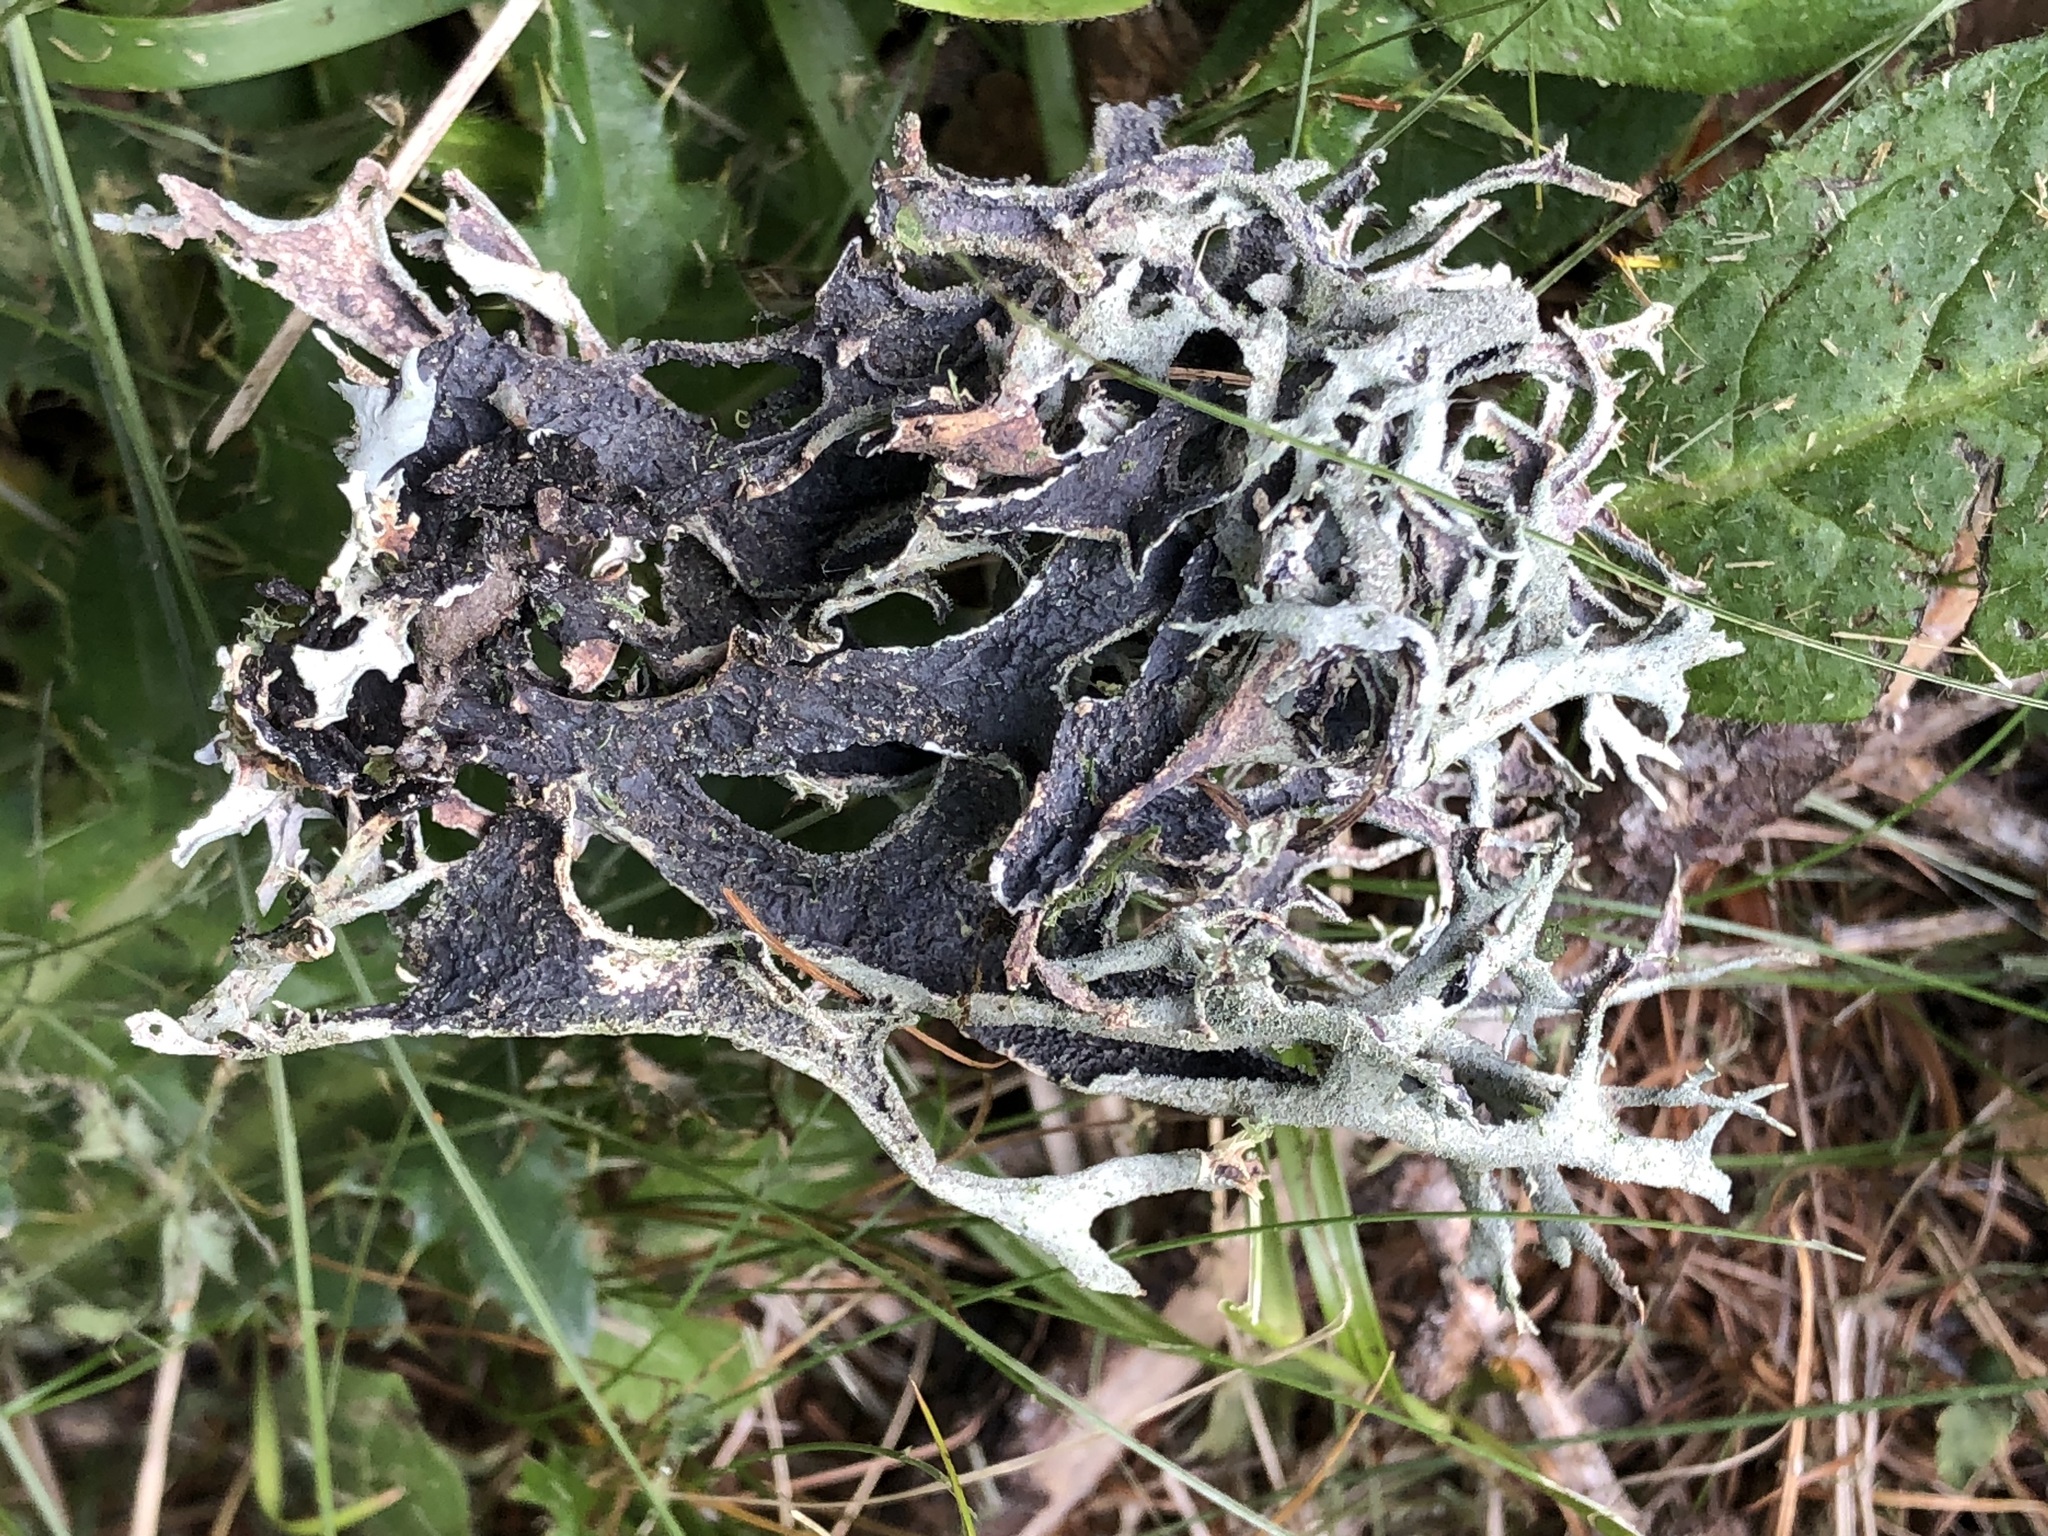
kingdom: Fungi
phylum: Ascomycota
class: Lecanoromycetes
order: Lecanorales
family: Parmeliaceae
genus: Pseudevernia
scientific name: Pseudevernia furfuracea
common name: Tree moss
